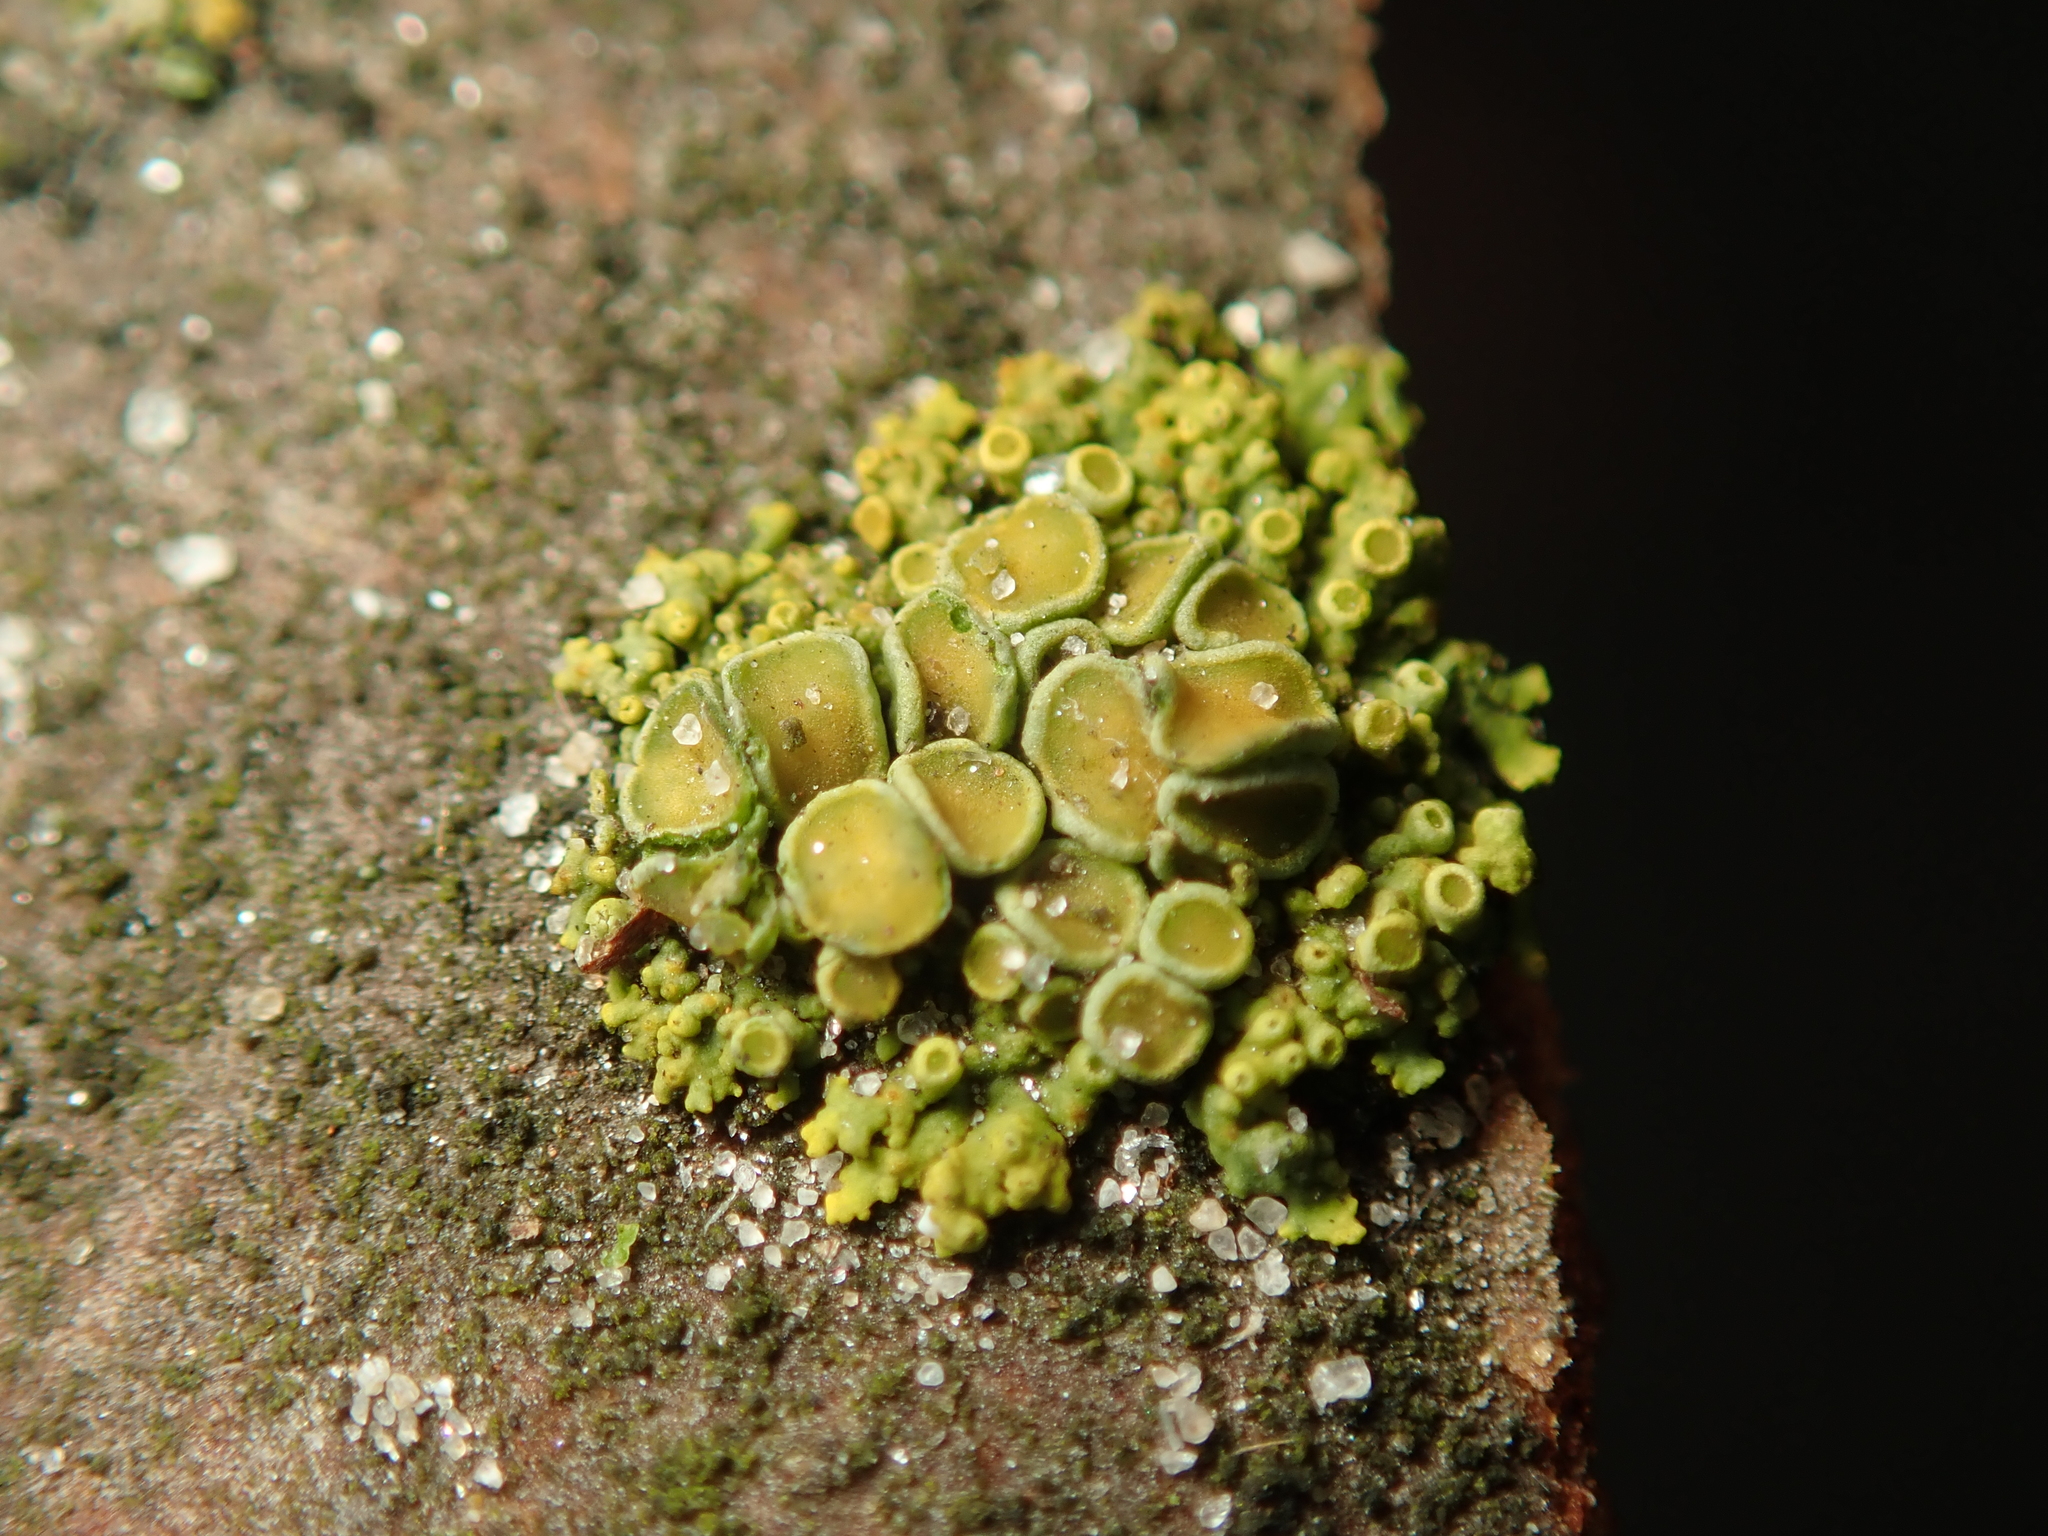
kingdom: Fungi
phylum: Ascomycota
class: Lecanoromycetes
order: Teloschistales
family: Teloschistaceae
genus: Polycauliona
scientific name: Polycauliona polycarpa
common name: Pin-cushion sunburst lichen
